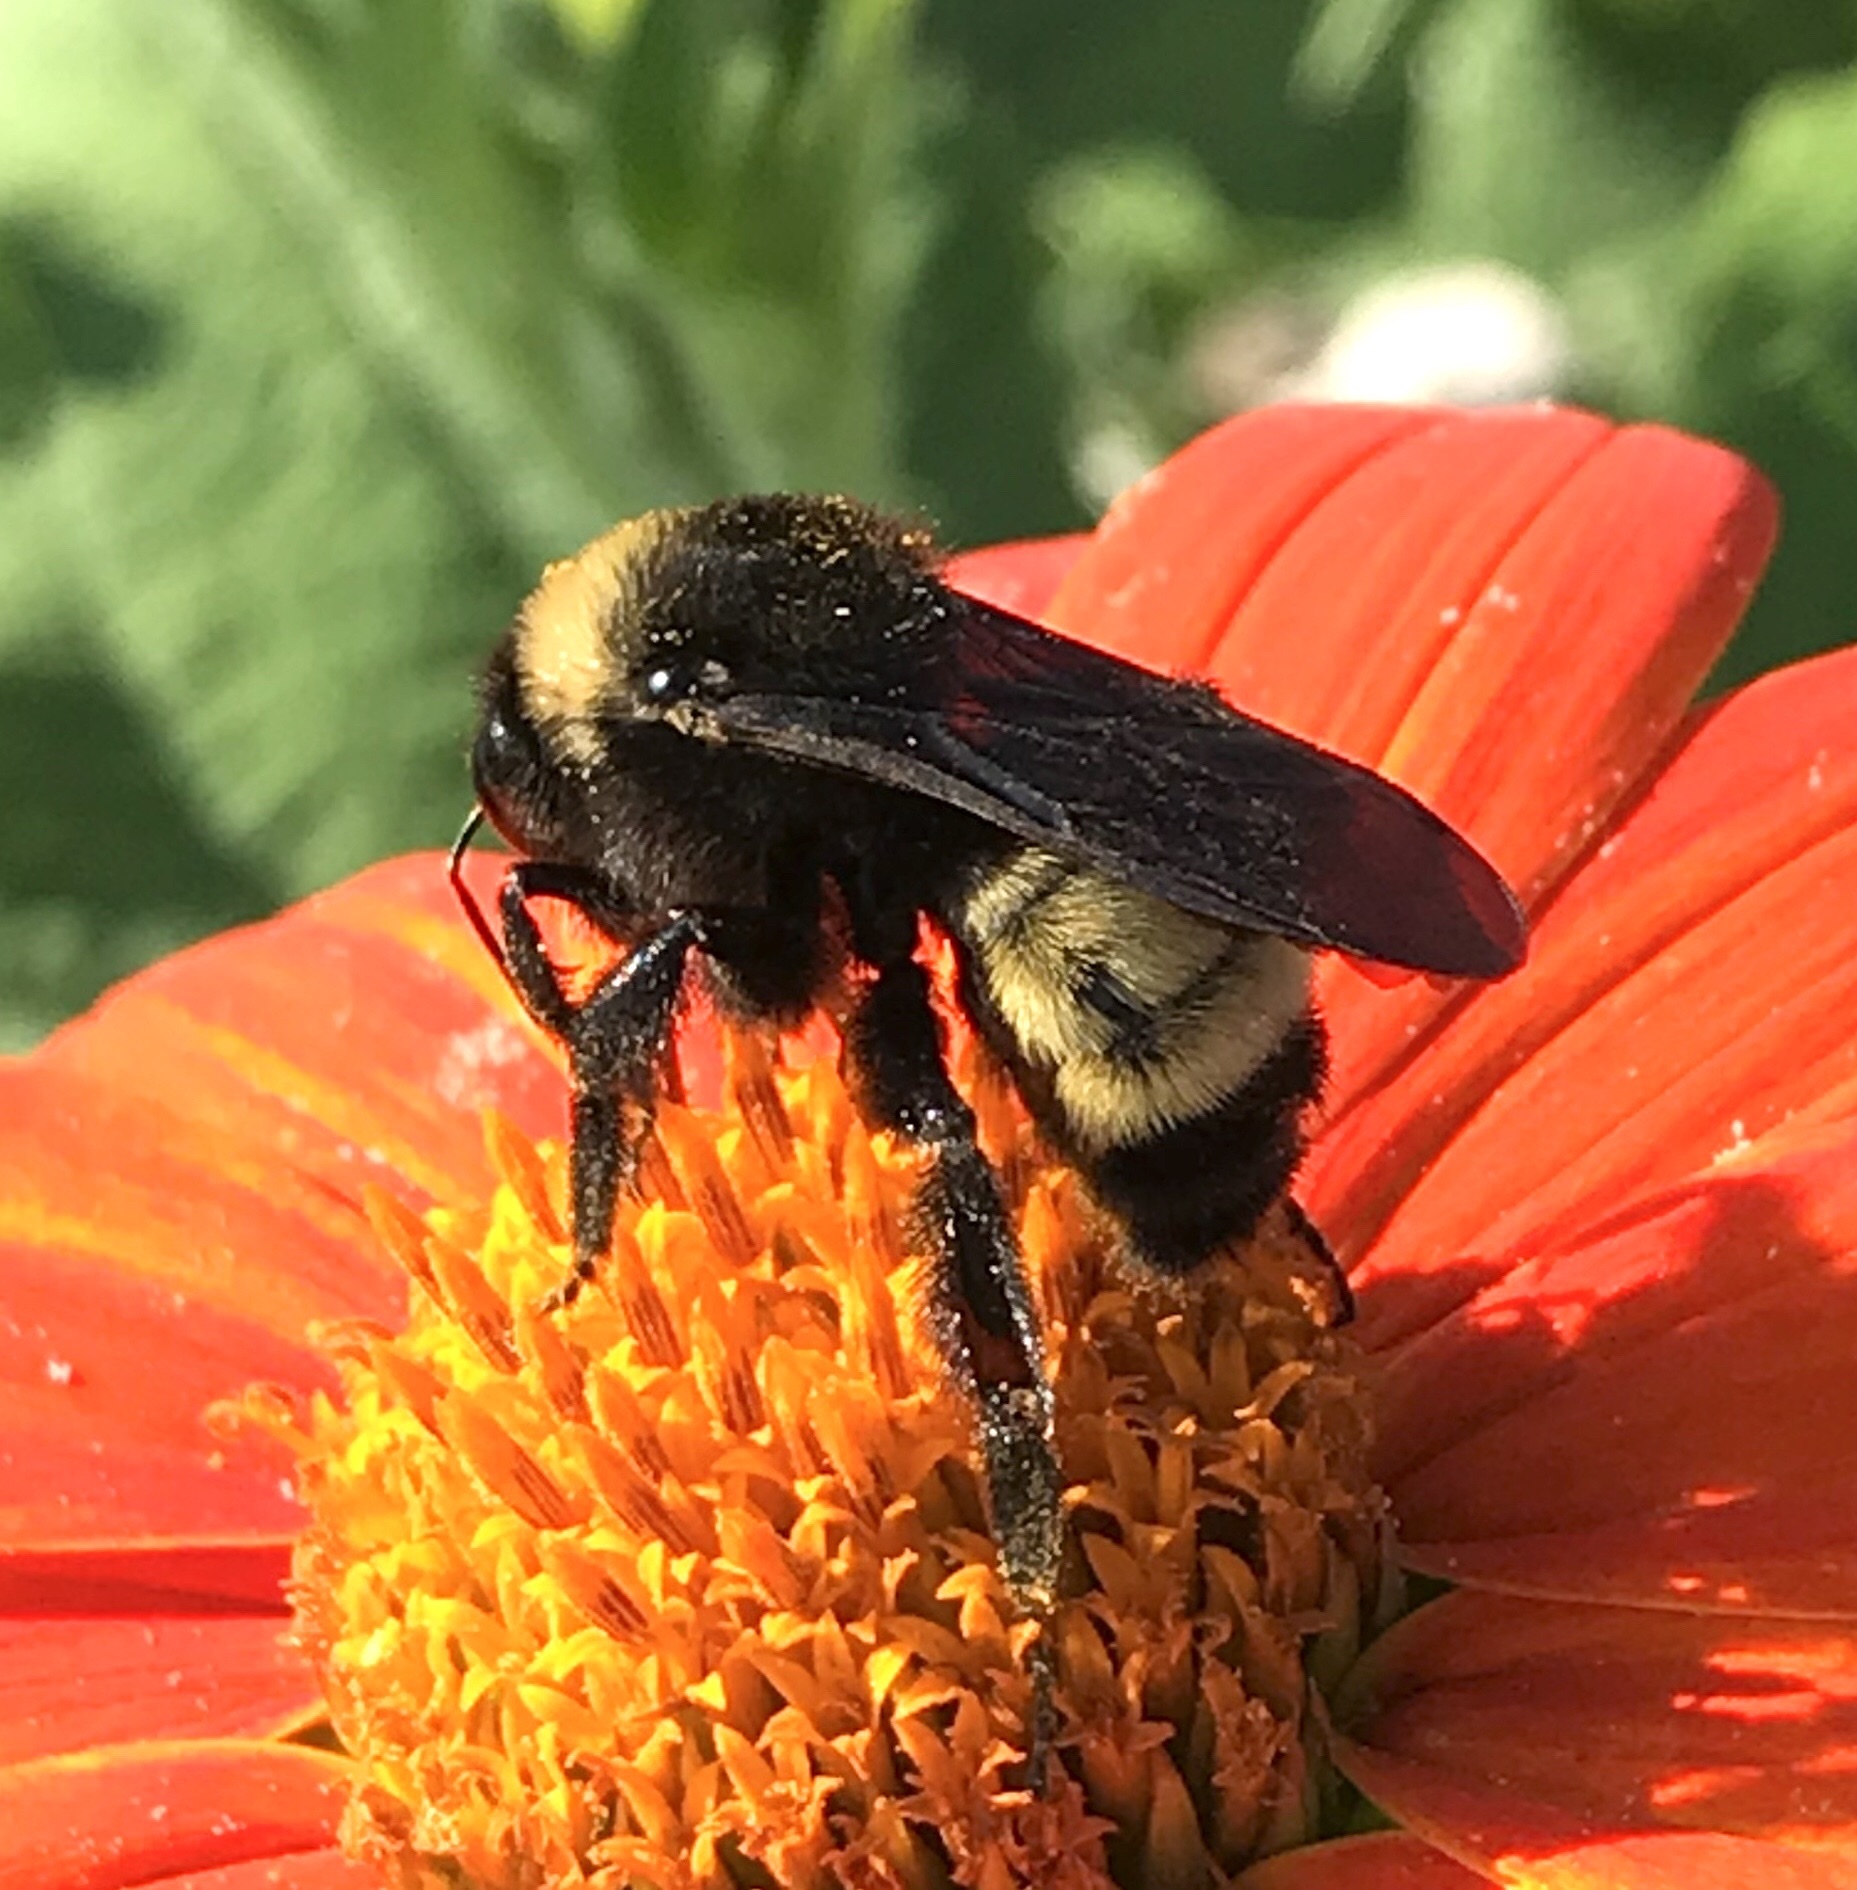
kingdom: Animalia
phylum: Arthropoda
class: Insecta
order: Hymenoptera
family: Apidae
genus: Bombus
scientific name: Bombus pensylvanicus
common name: Bumble bee
